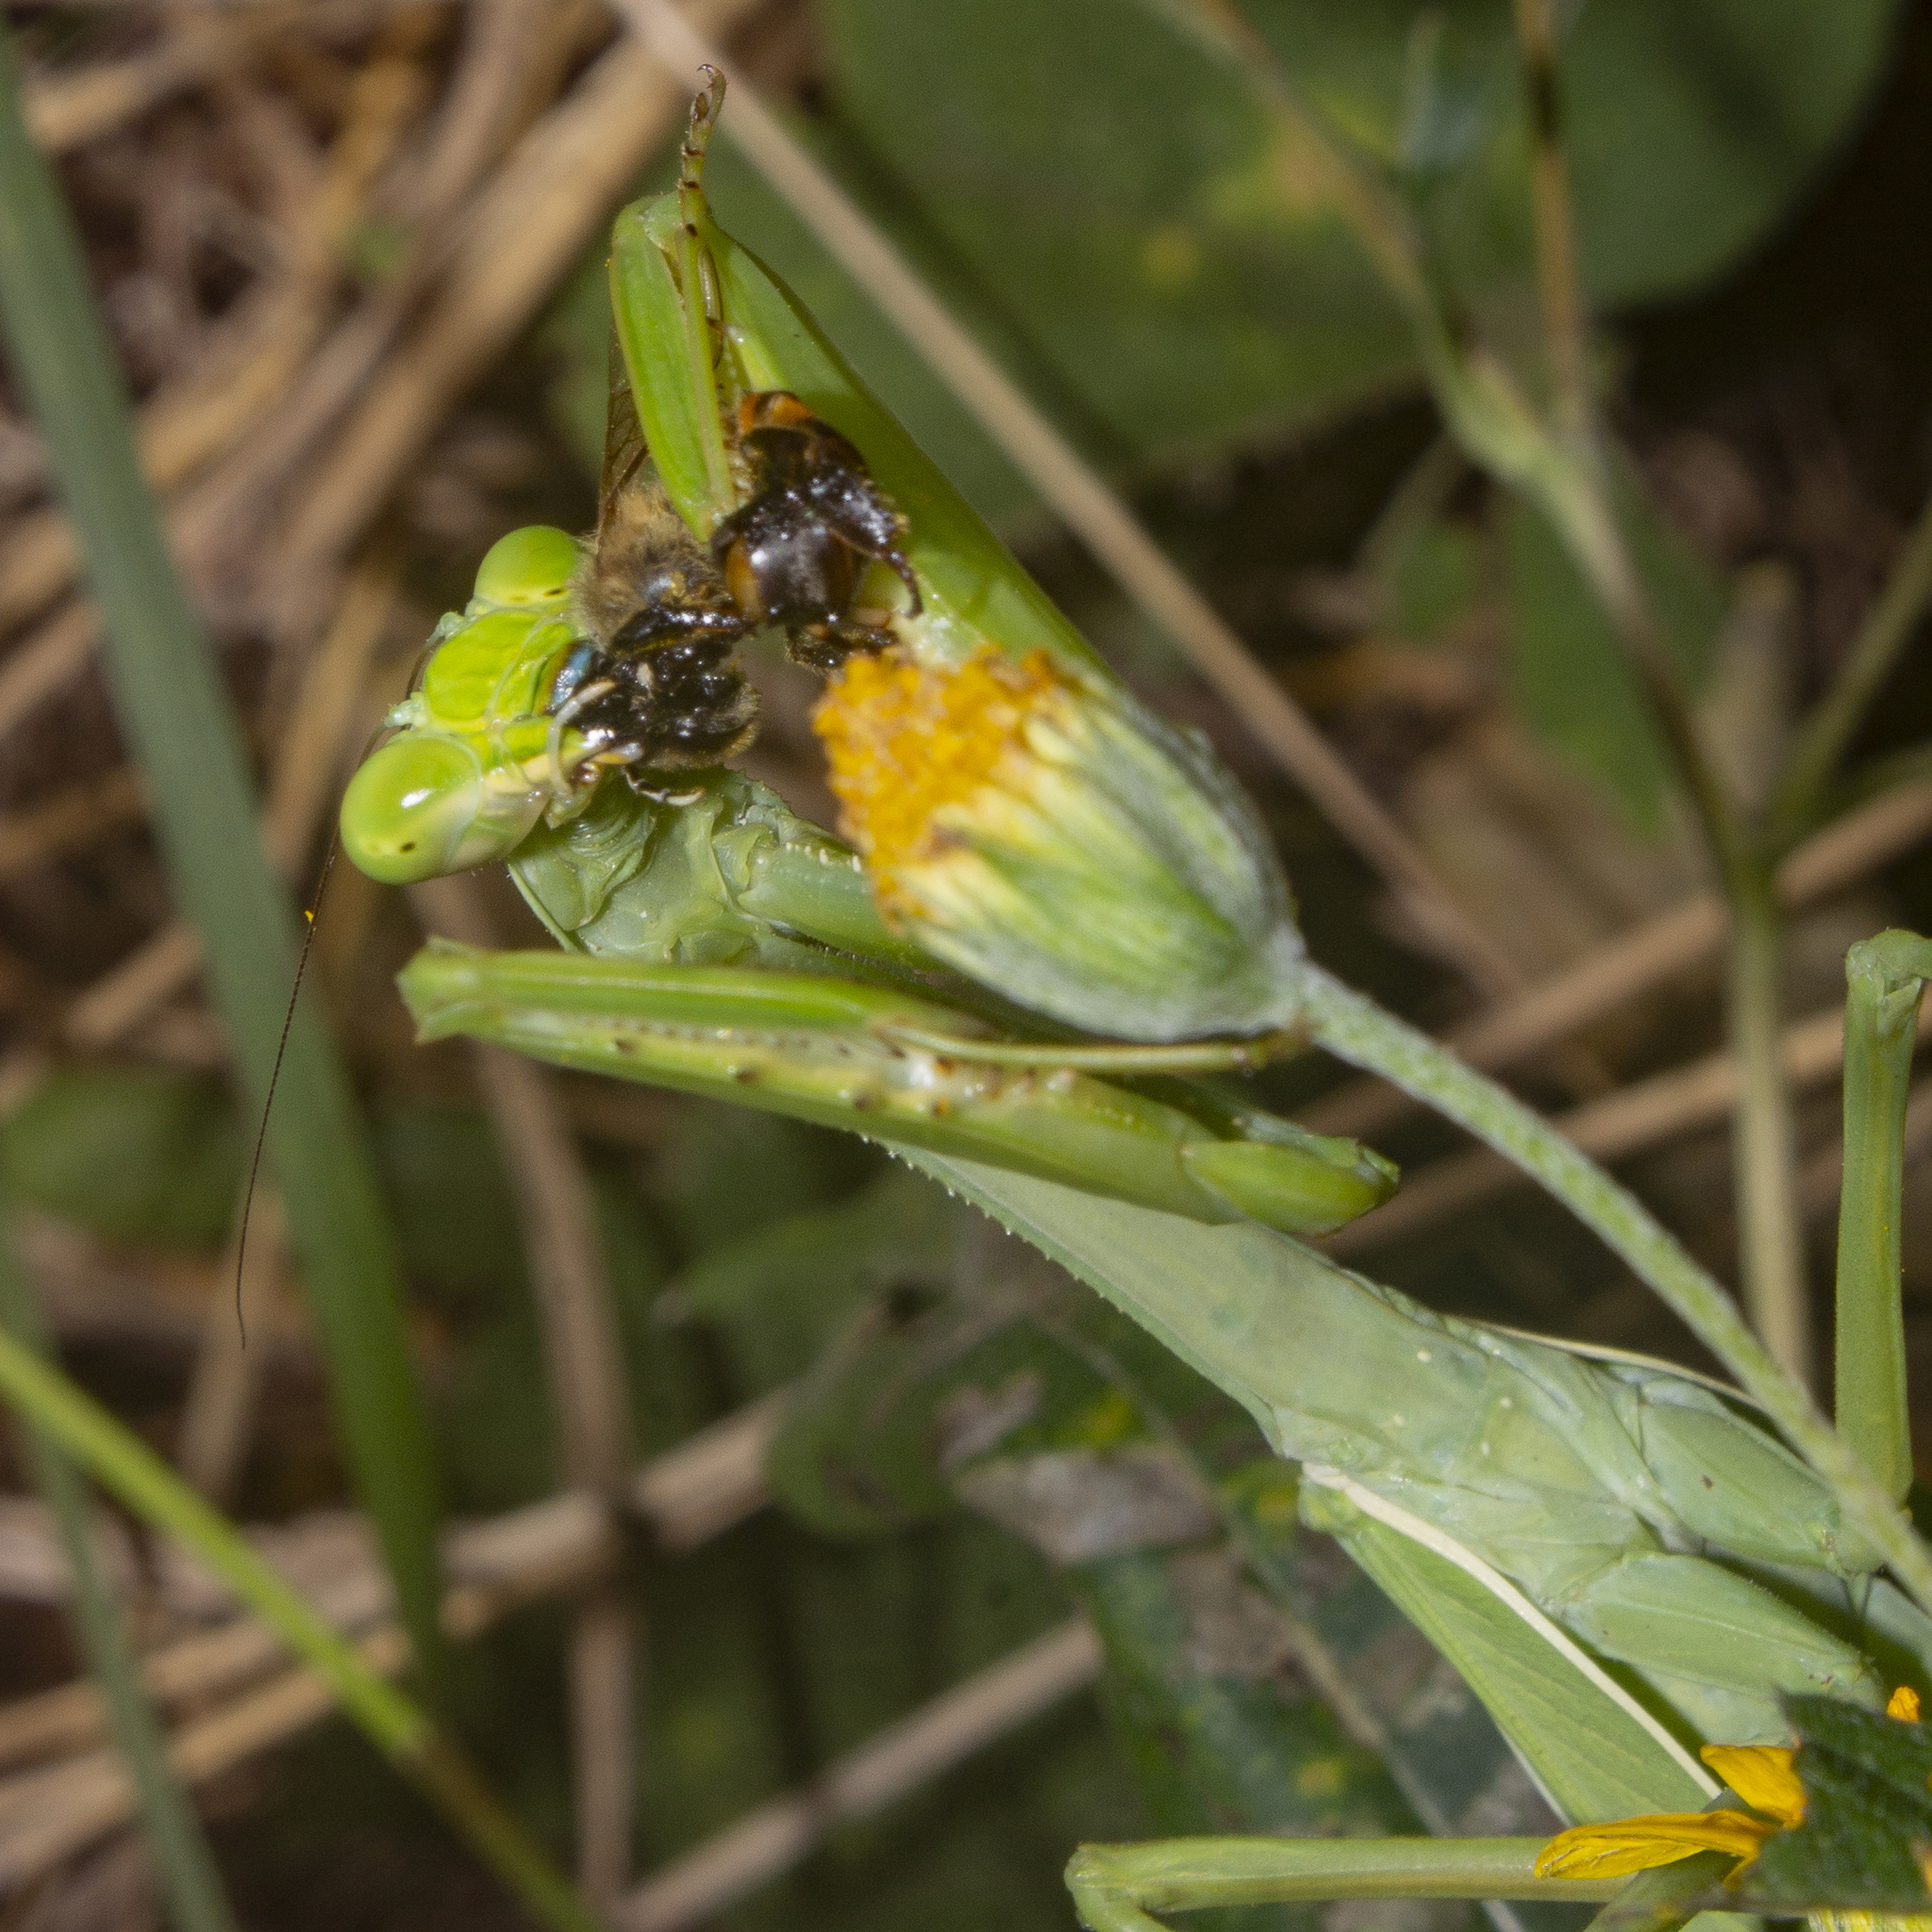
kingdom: Animalia
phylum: Arthropoda
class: Insecta
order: Mantodea
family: Mantidae
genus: Stagmatoptera
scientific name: Stagmatoptera septentrionalis
